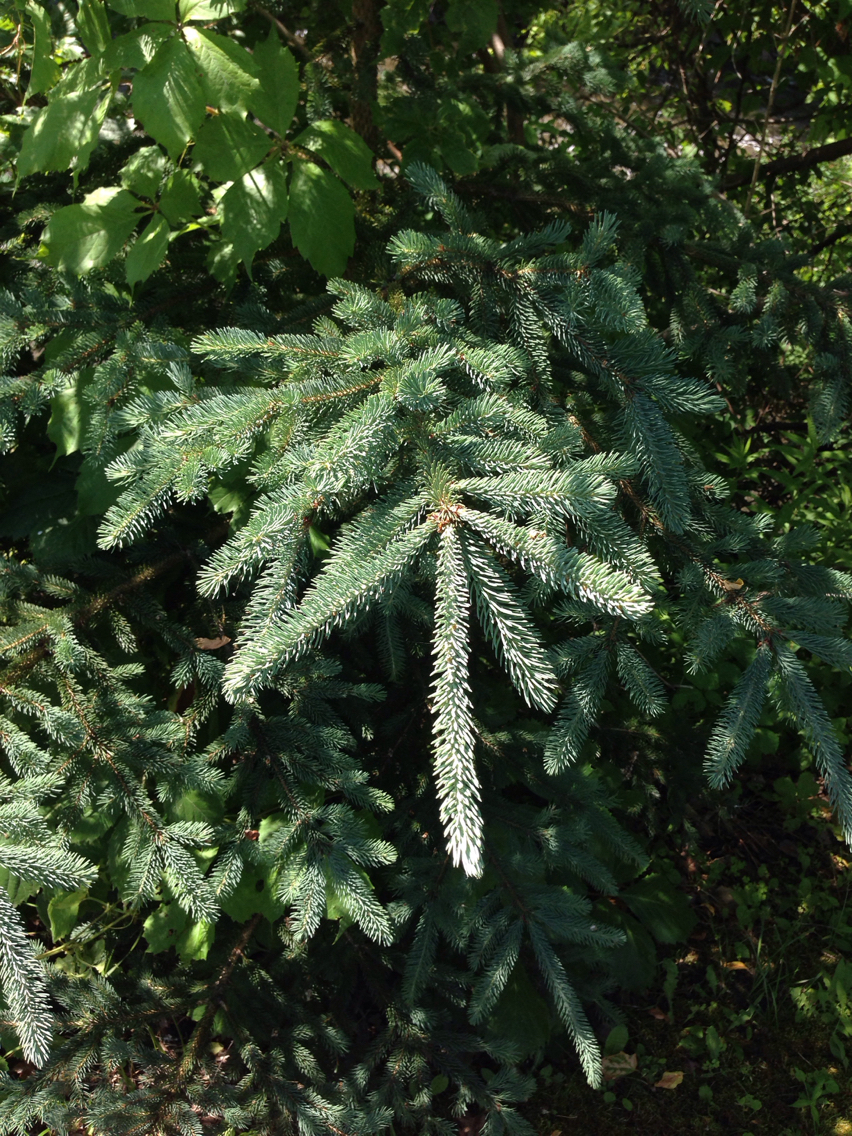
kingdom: Plantae
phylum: Tracheophyta
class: Pinopsida
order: Pinales
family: Pinaceae
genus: Picea
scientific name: Picea glauca
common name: White spruce
